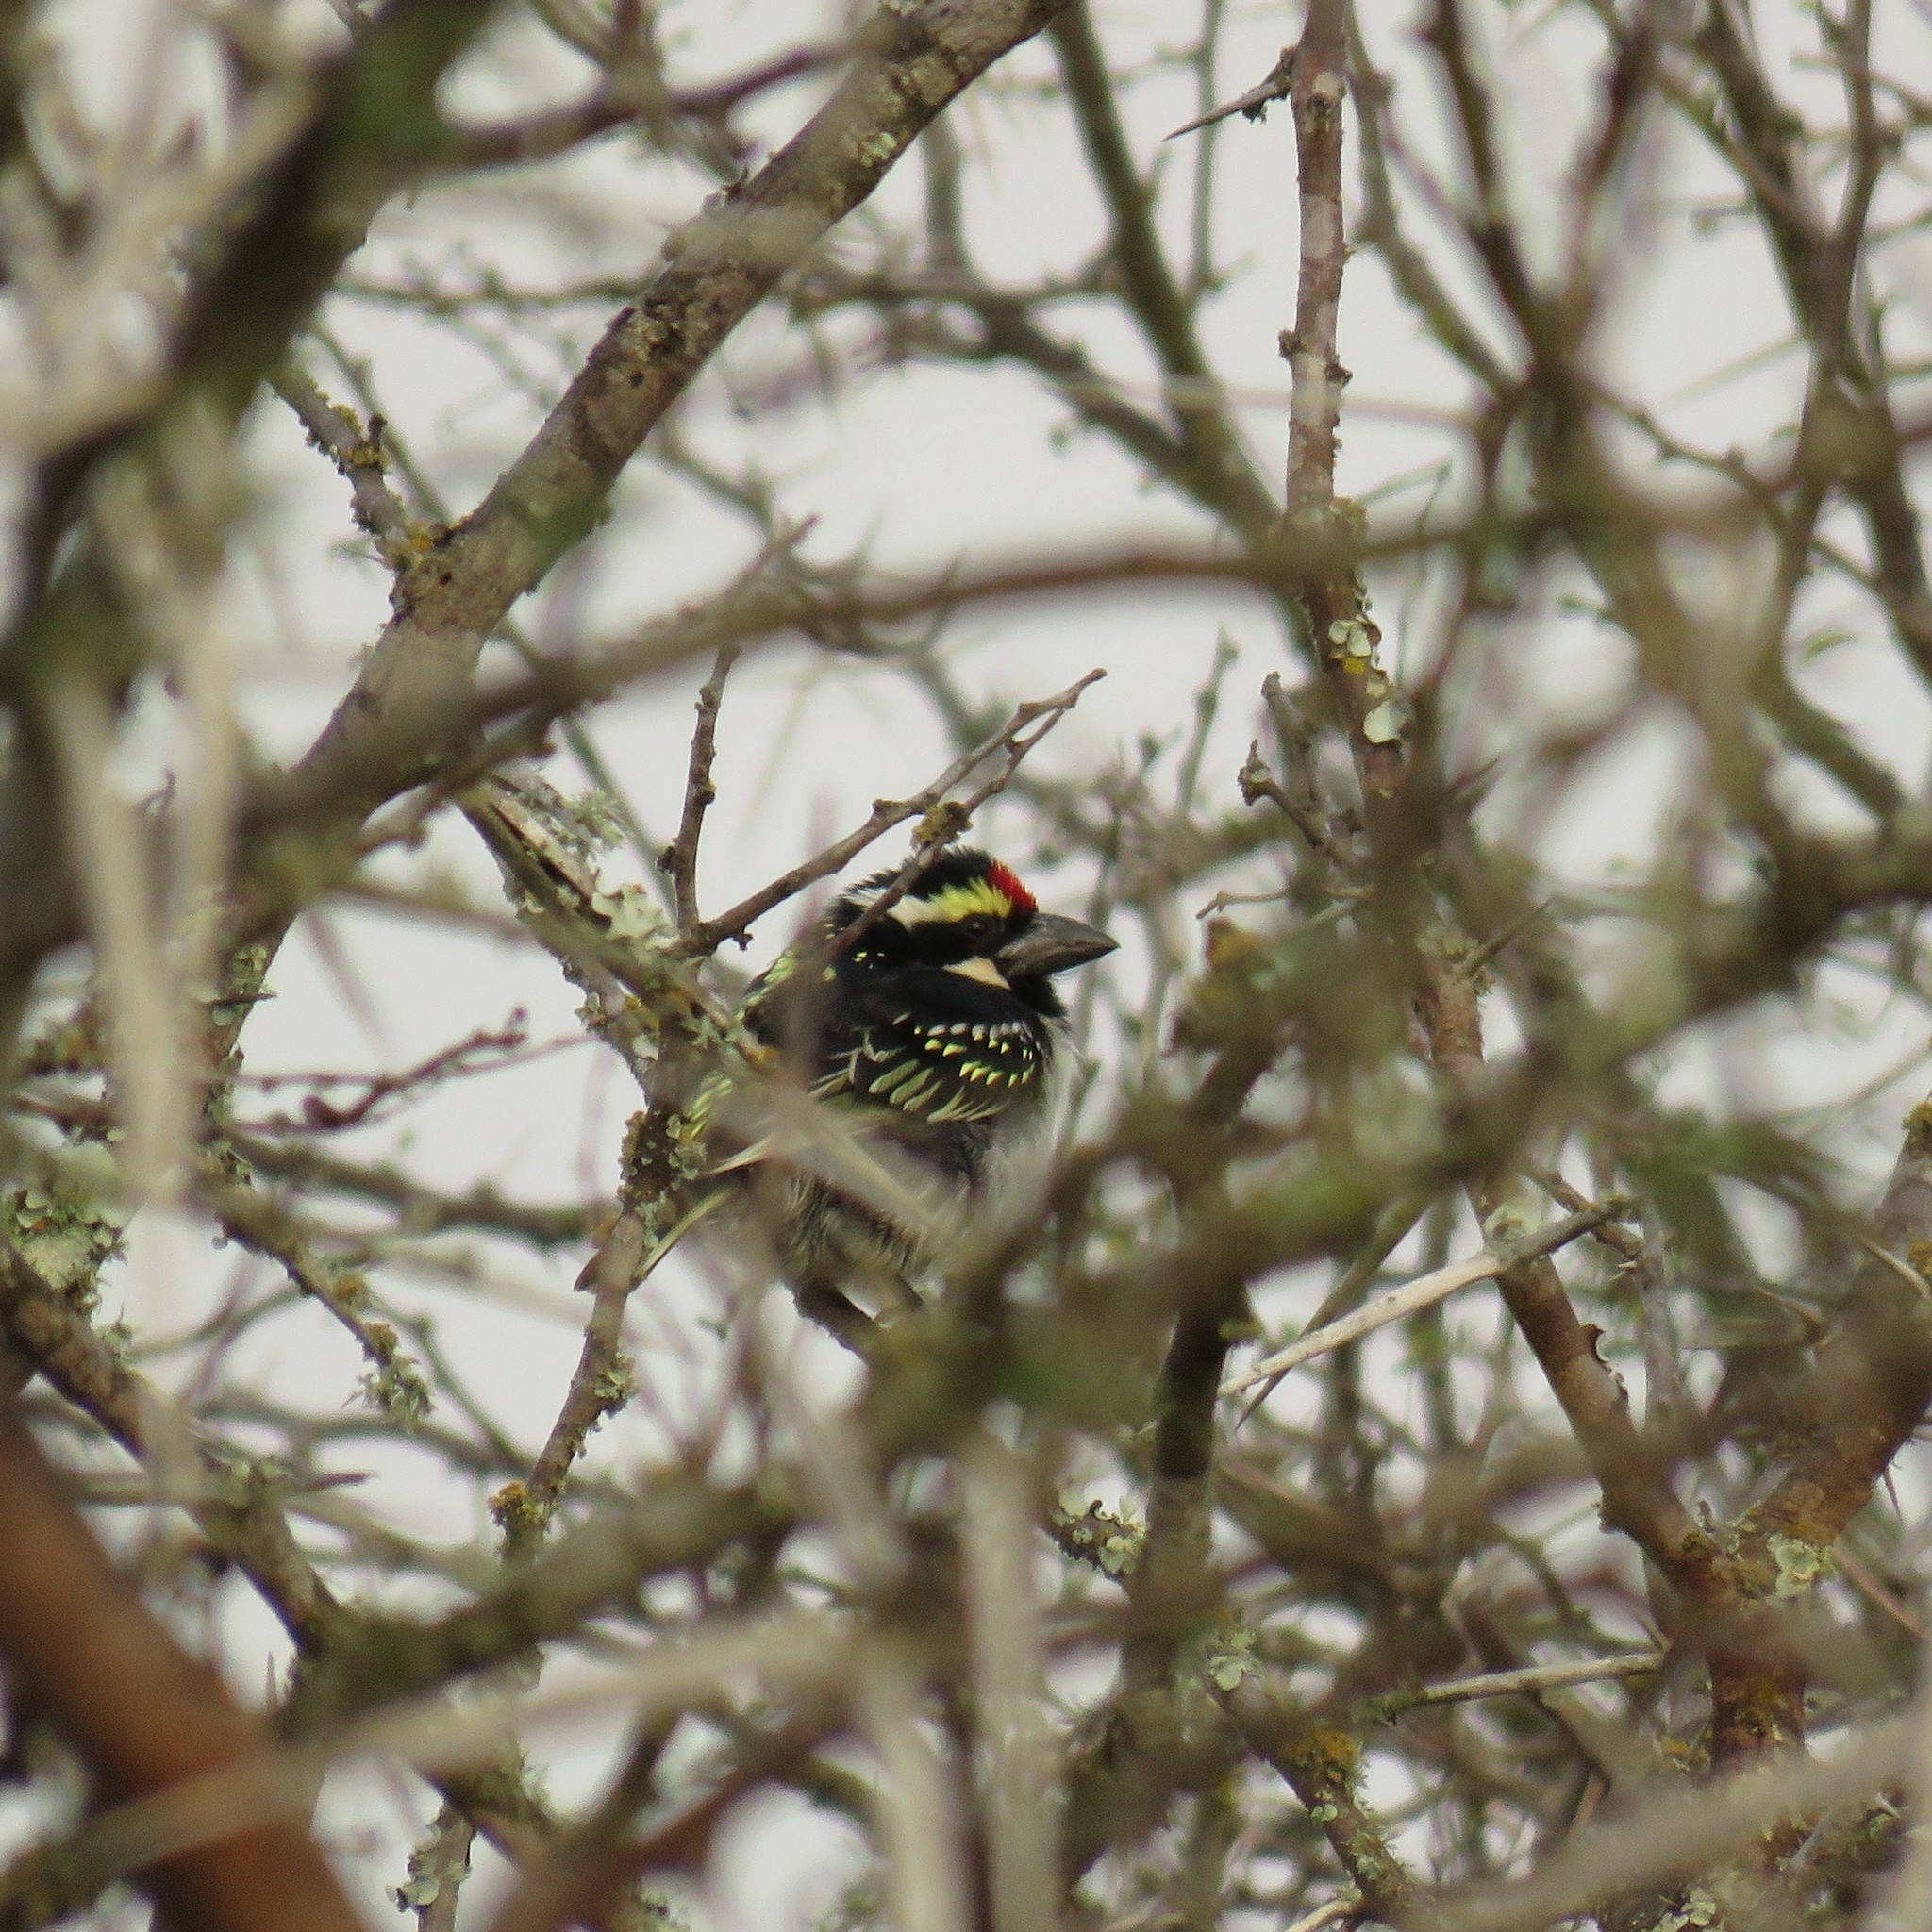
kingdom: Animalia
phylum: Chordata
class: Aves
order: Piciformes
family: Lybiidae
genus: Tricholaema
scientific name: Tricholaema leucomelas
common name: Acacia pied barbet
